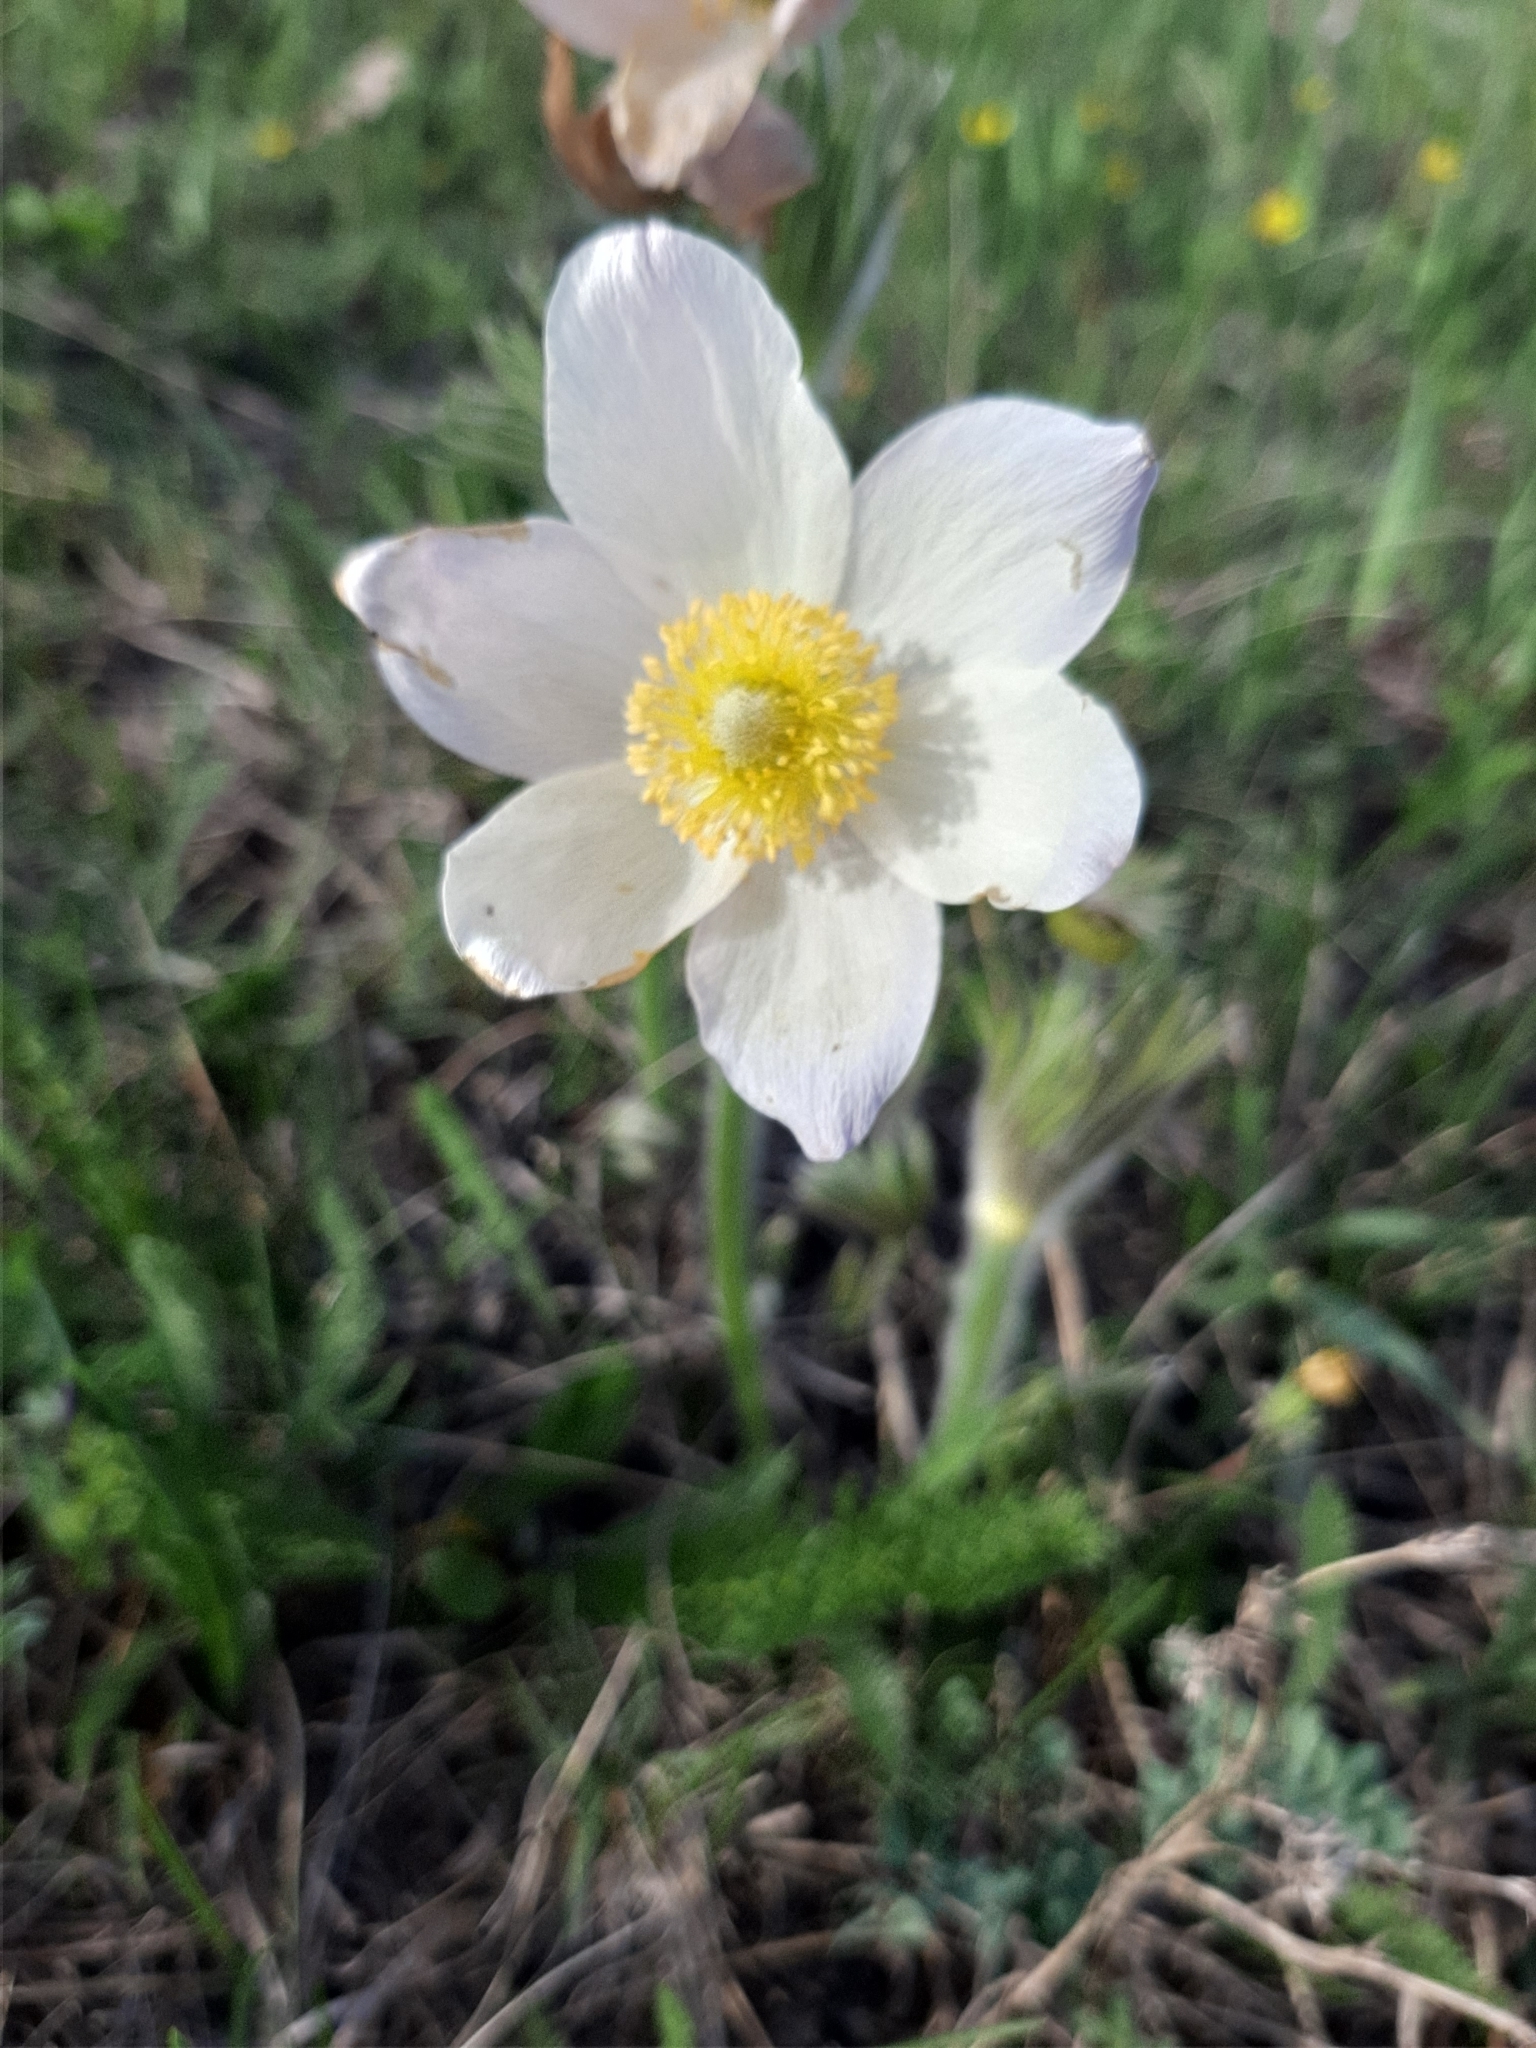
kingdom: Plantae
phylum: Tracheophyta
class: Magnoliopsida
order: Ranunculales
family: Ranunculaceae
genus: Pulsatilla
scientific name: Pulsatilla patens
